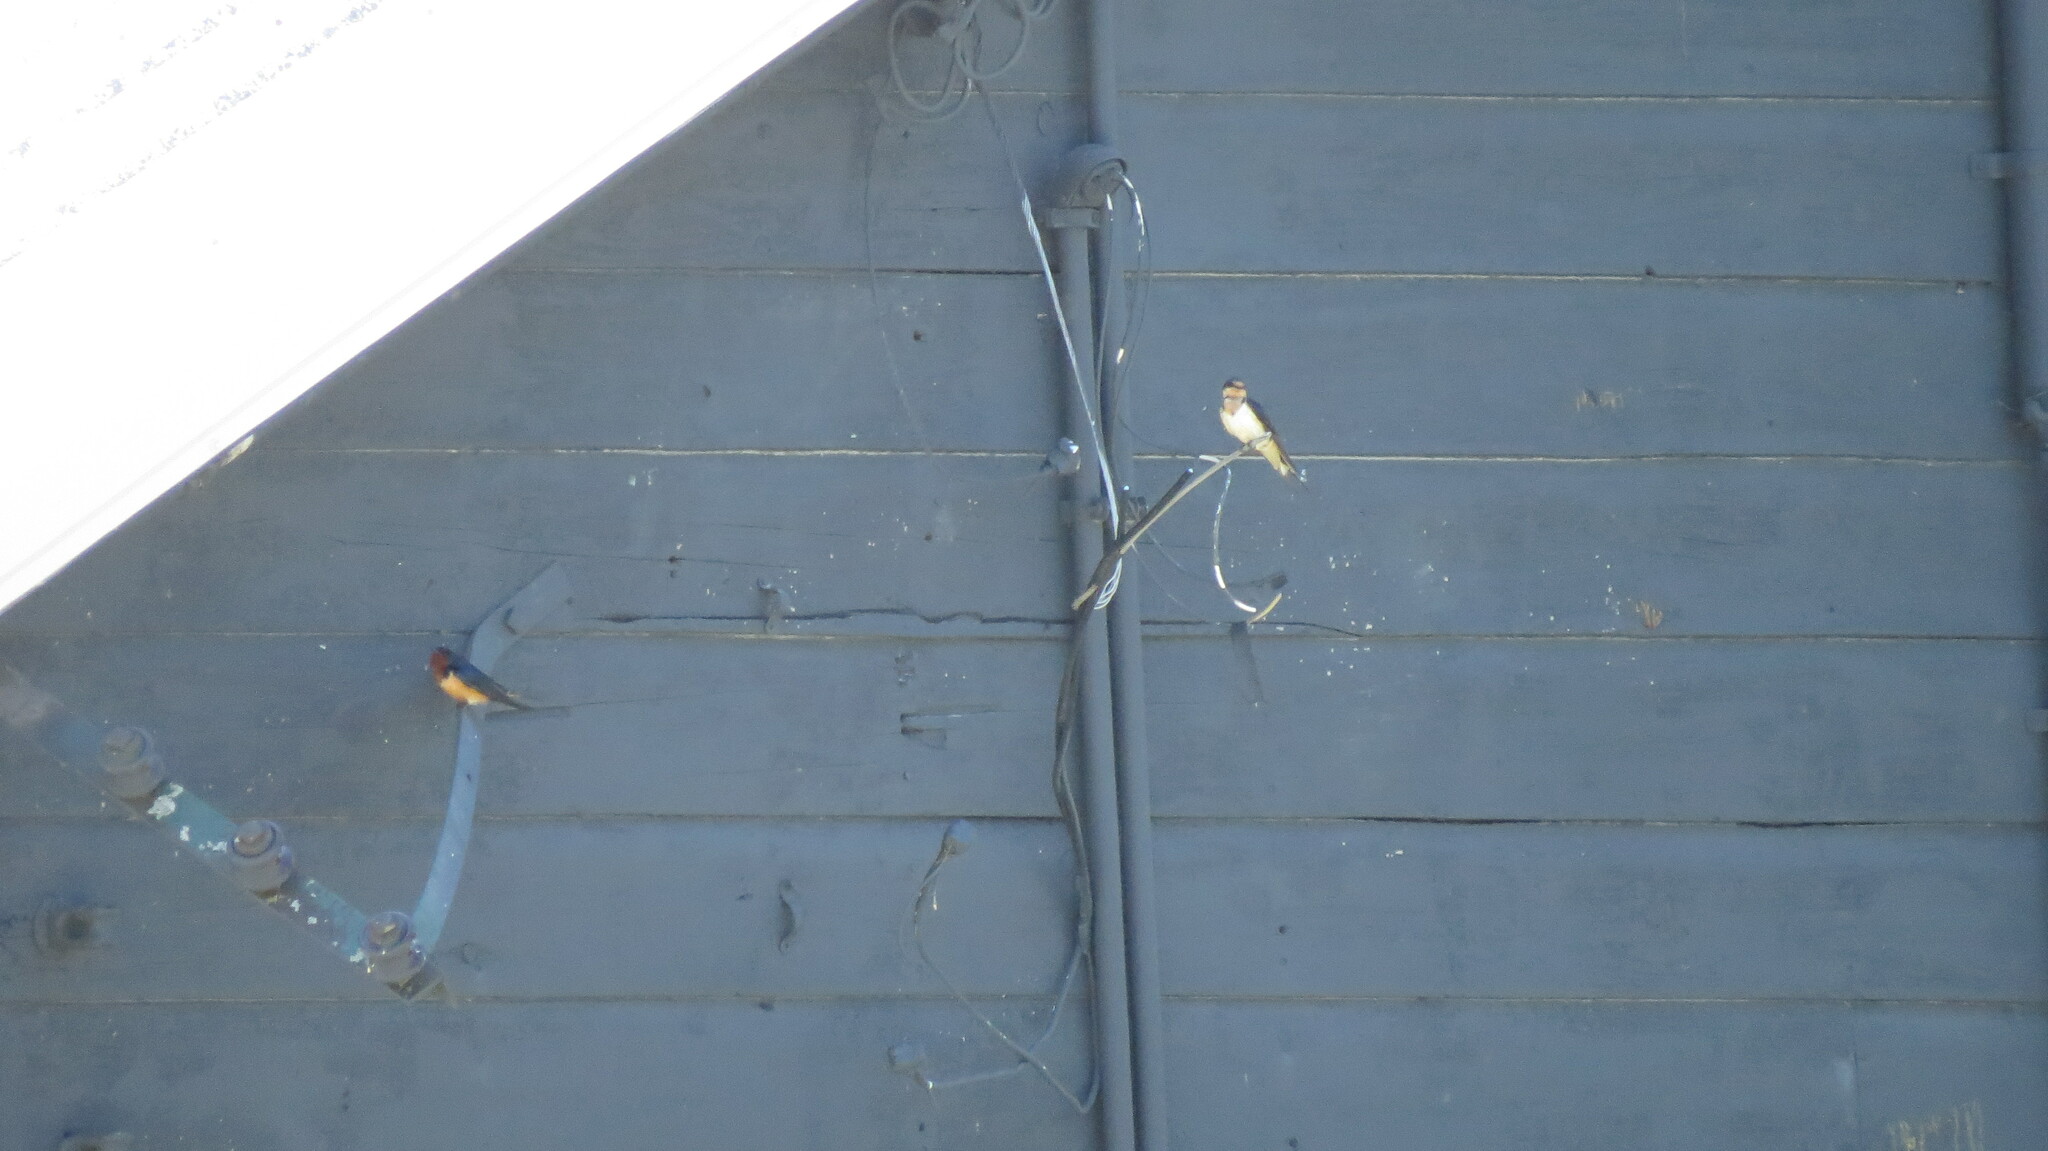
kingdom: Animalia
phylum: Chordata
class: Aves
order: Passeriformes
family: Hirundinidae
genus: Hirundo
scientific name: Hirundo rustica
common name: Barn swallow
